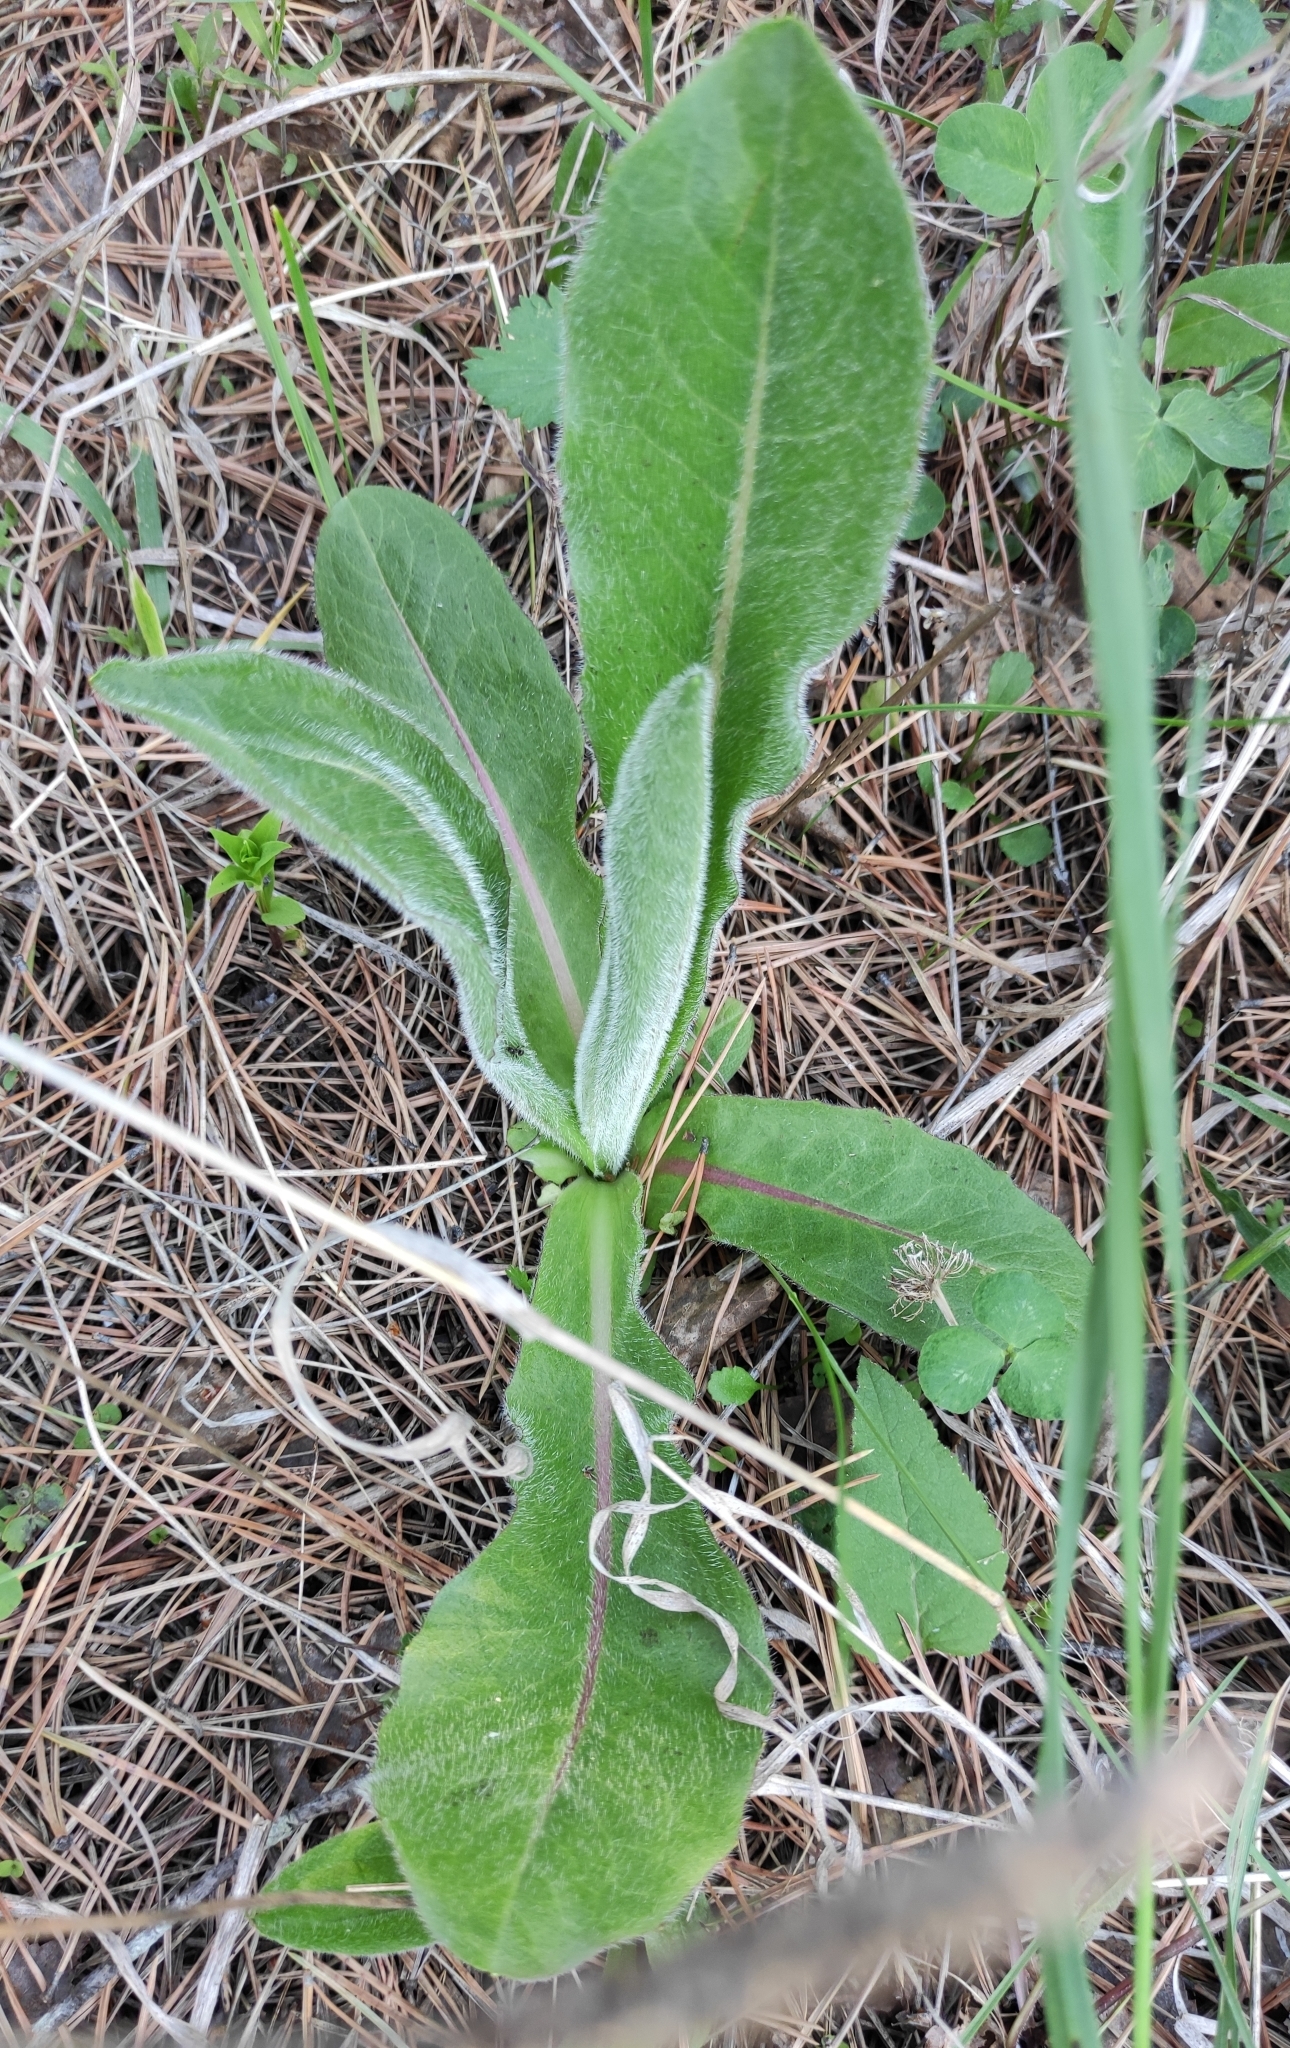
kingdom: Plantae
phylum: Tracheophyta
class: Magnoliopsida
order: Asterales
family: Asteraceae
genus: Trommsdorffia
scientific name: Trommsdorffia maculata
